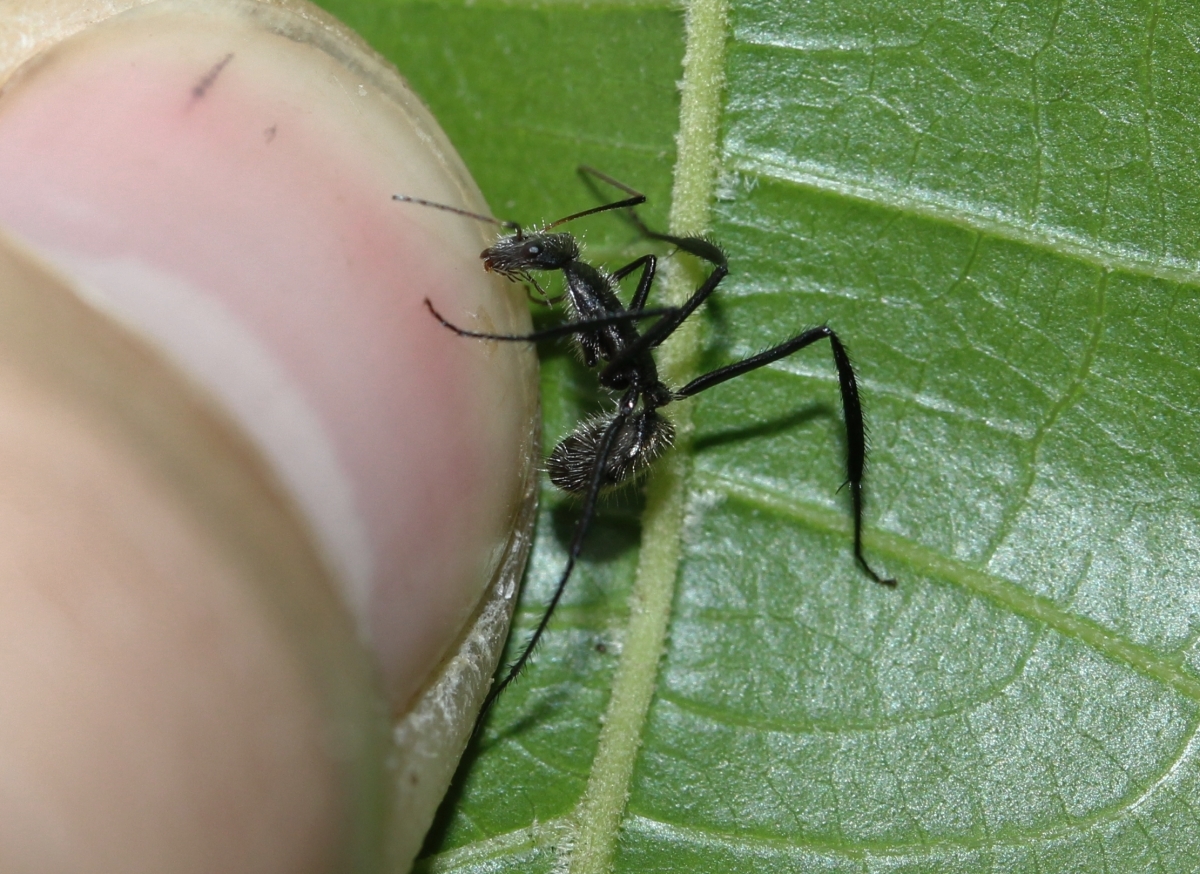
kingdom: Animalia
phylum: Arthropoda
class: Insecta
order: Hymenoptera
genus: Myrmomalis
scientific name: Myrmomalis
